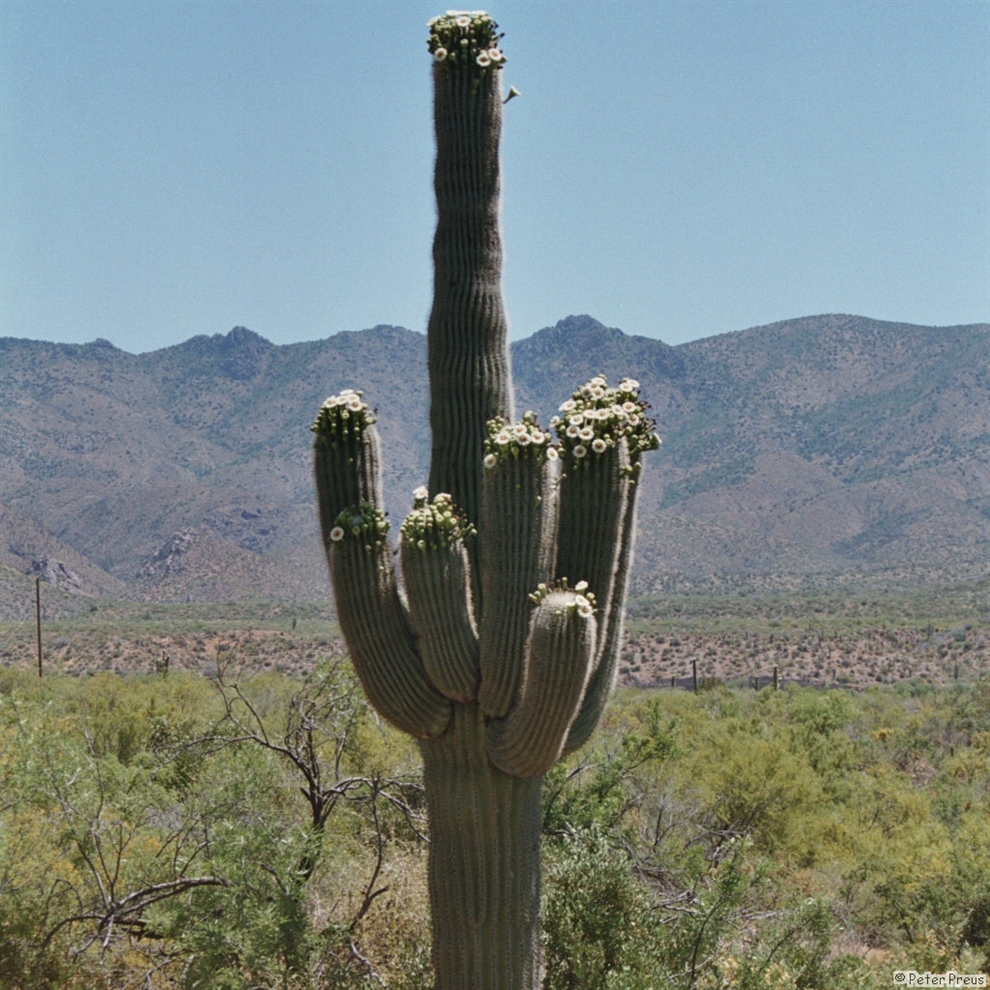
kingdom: Plantae
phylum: Tracheophyta
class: Magnoliopsida
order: Caryophyllales
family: Cactaceae
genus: Carnegiea
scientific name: Carnegiea gigantea
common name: Saguaro
